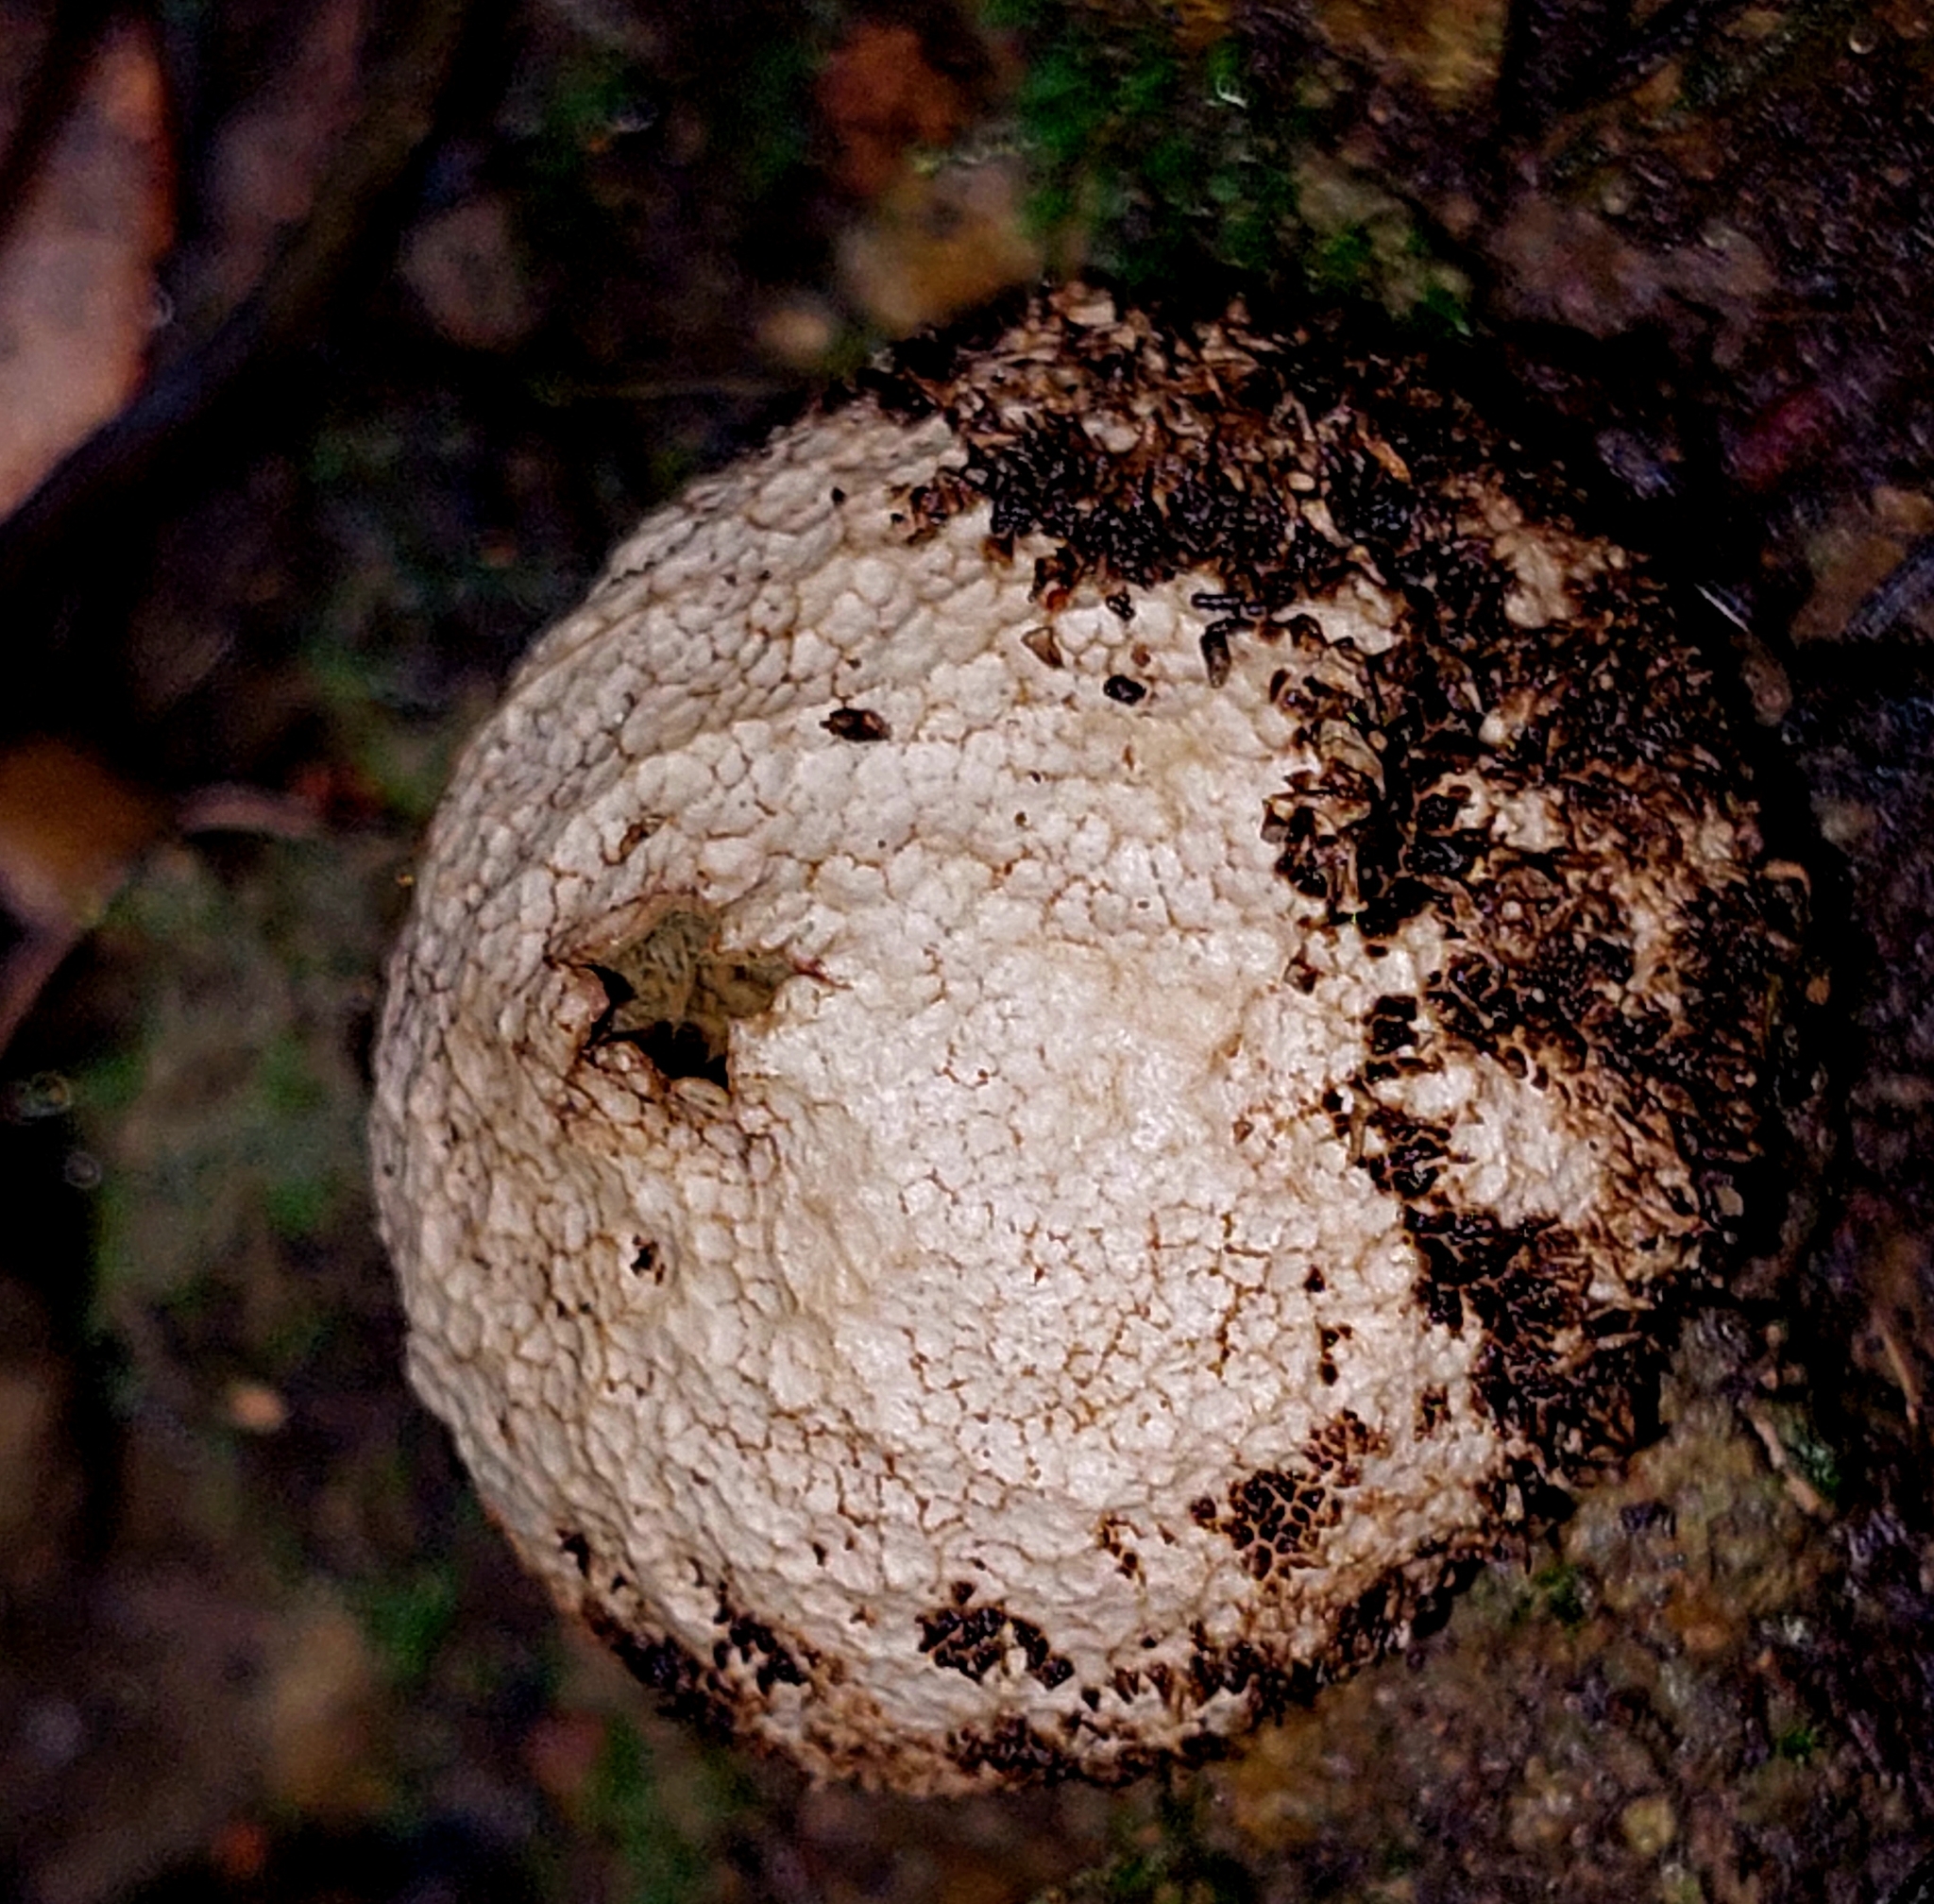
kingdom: Fungi
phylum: Basidiomycota
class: Agaricomycetes
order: Agaricales
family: Lycoperdaceae
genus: Lycoperdon
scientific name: Lycoperdon compactum
